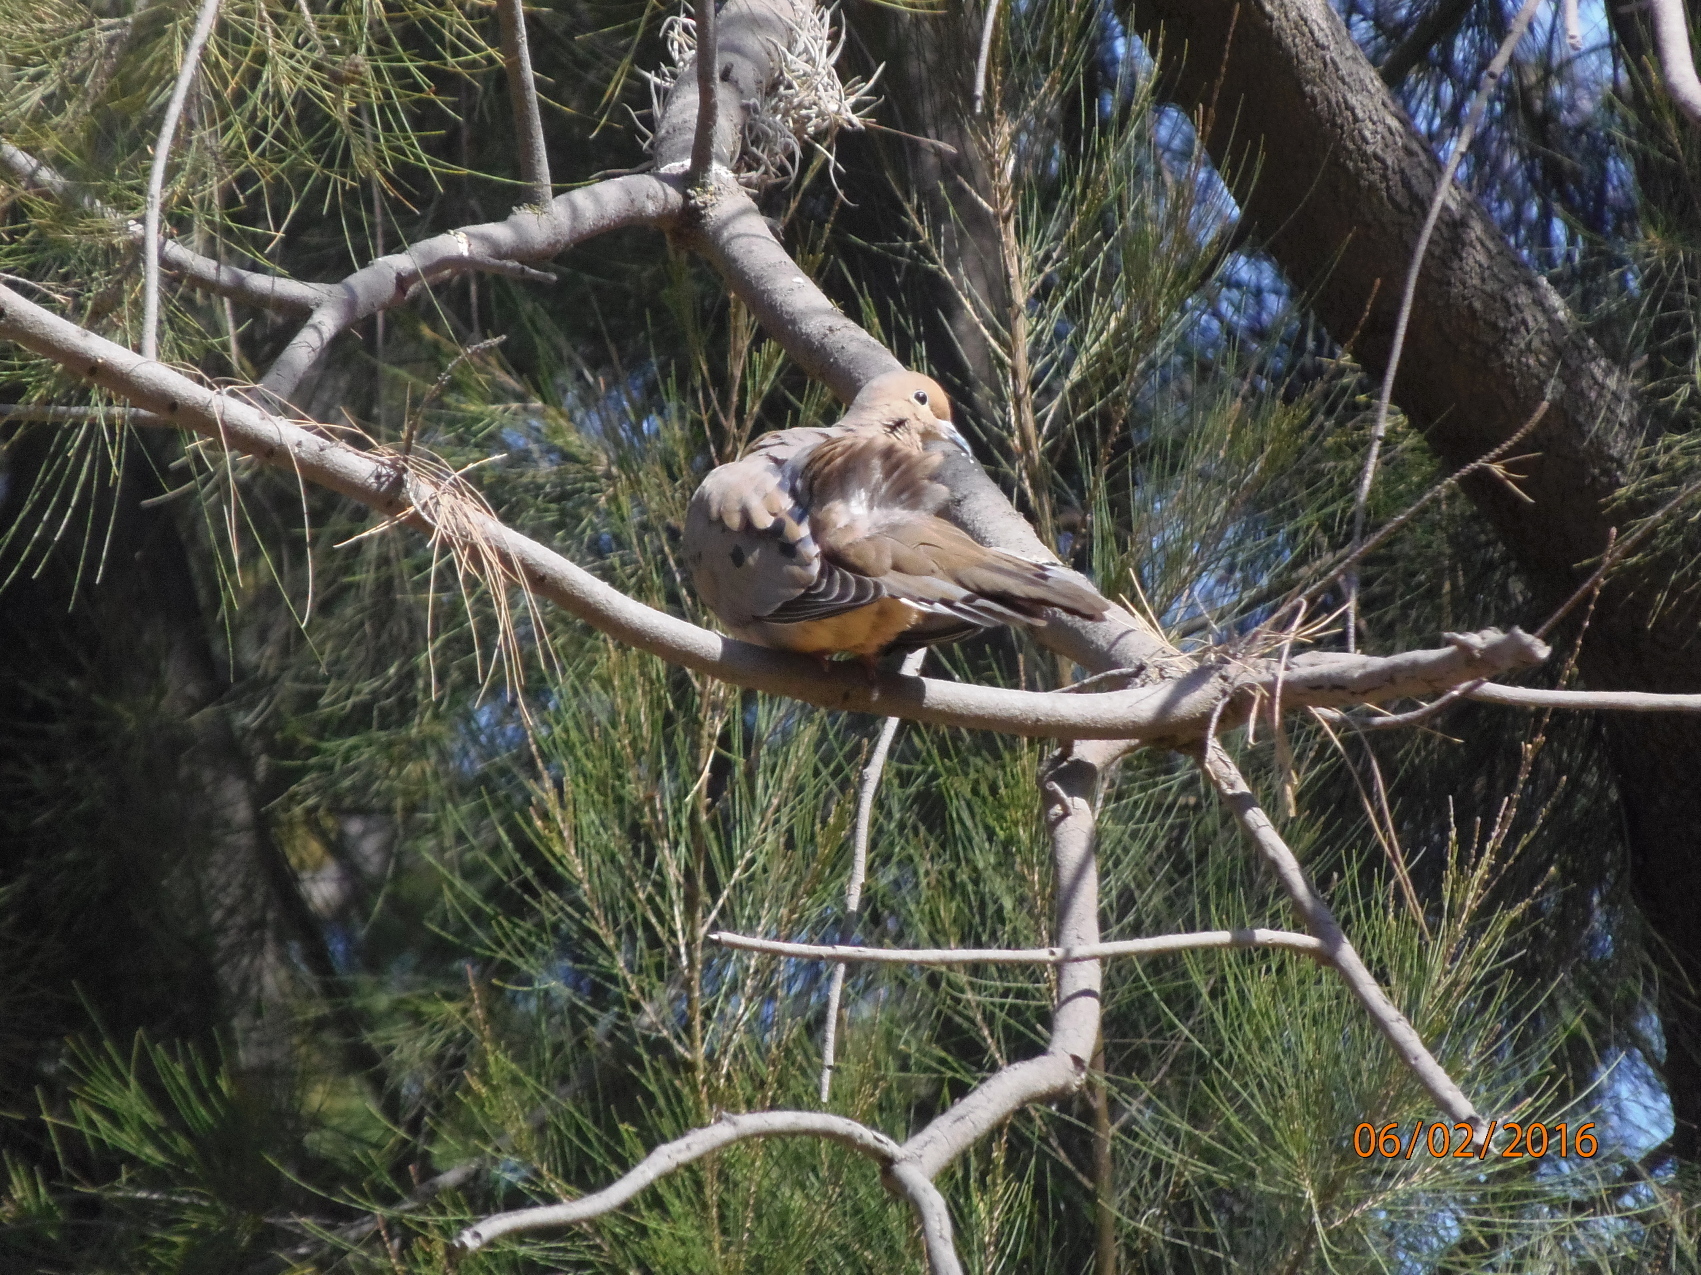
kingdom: Animalia
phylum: Chordata
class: Aves
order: Columbiformes
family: Columbidae
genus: Zenaida
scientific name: Zenaida macroura
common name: Mourning dove
